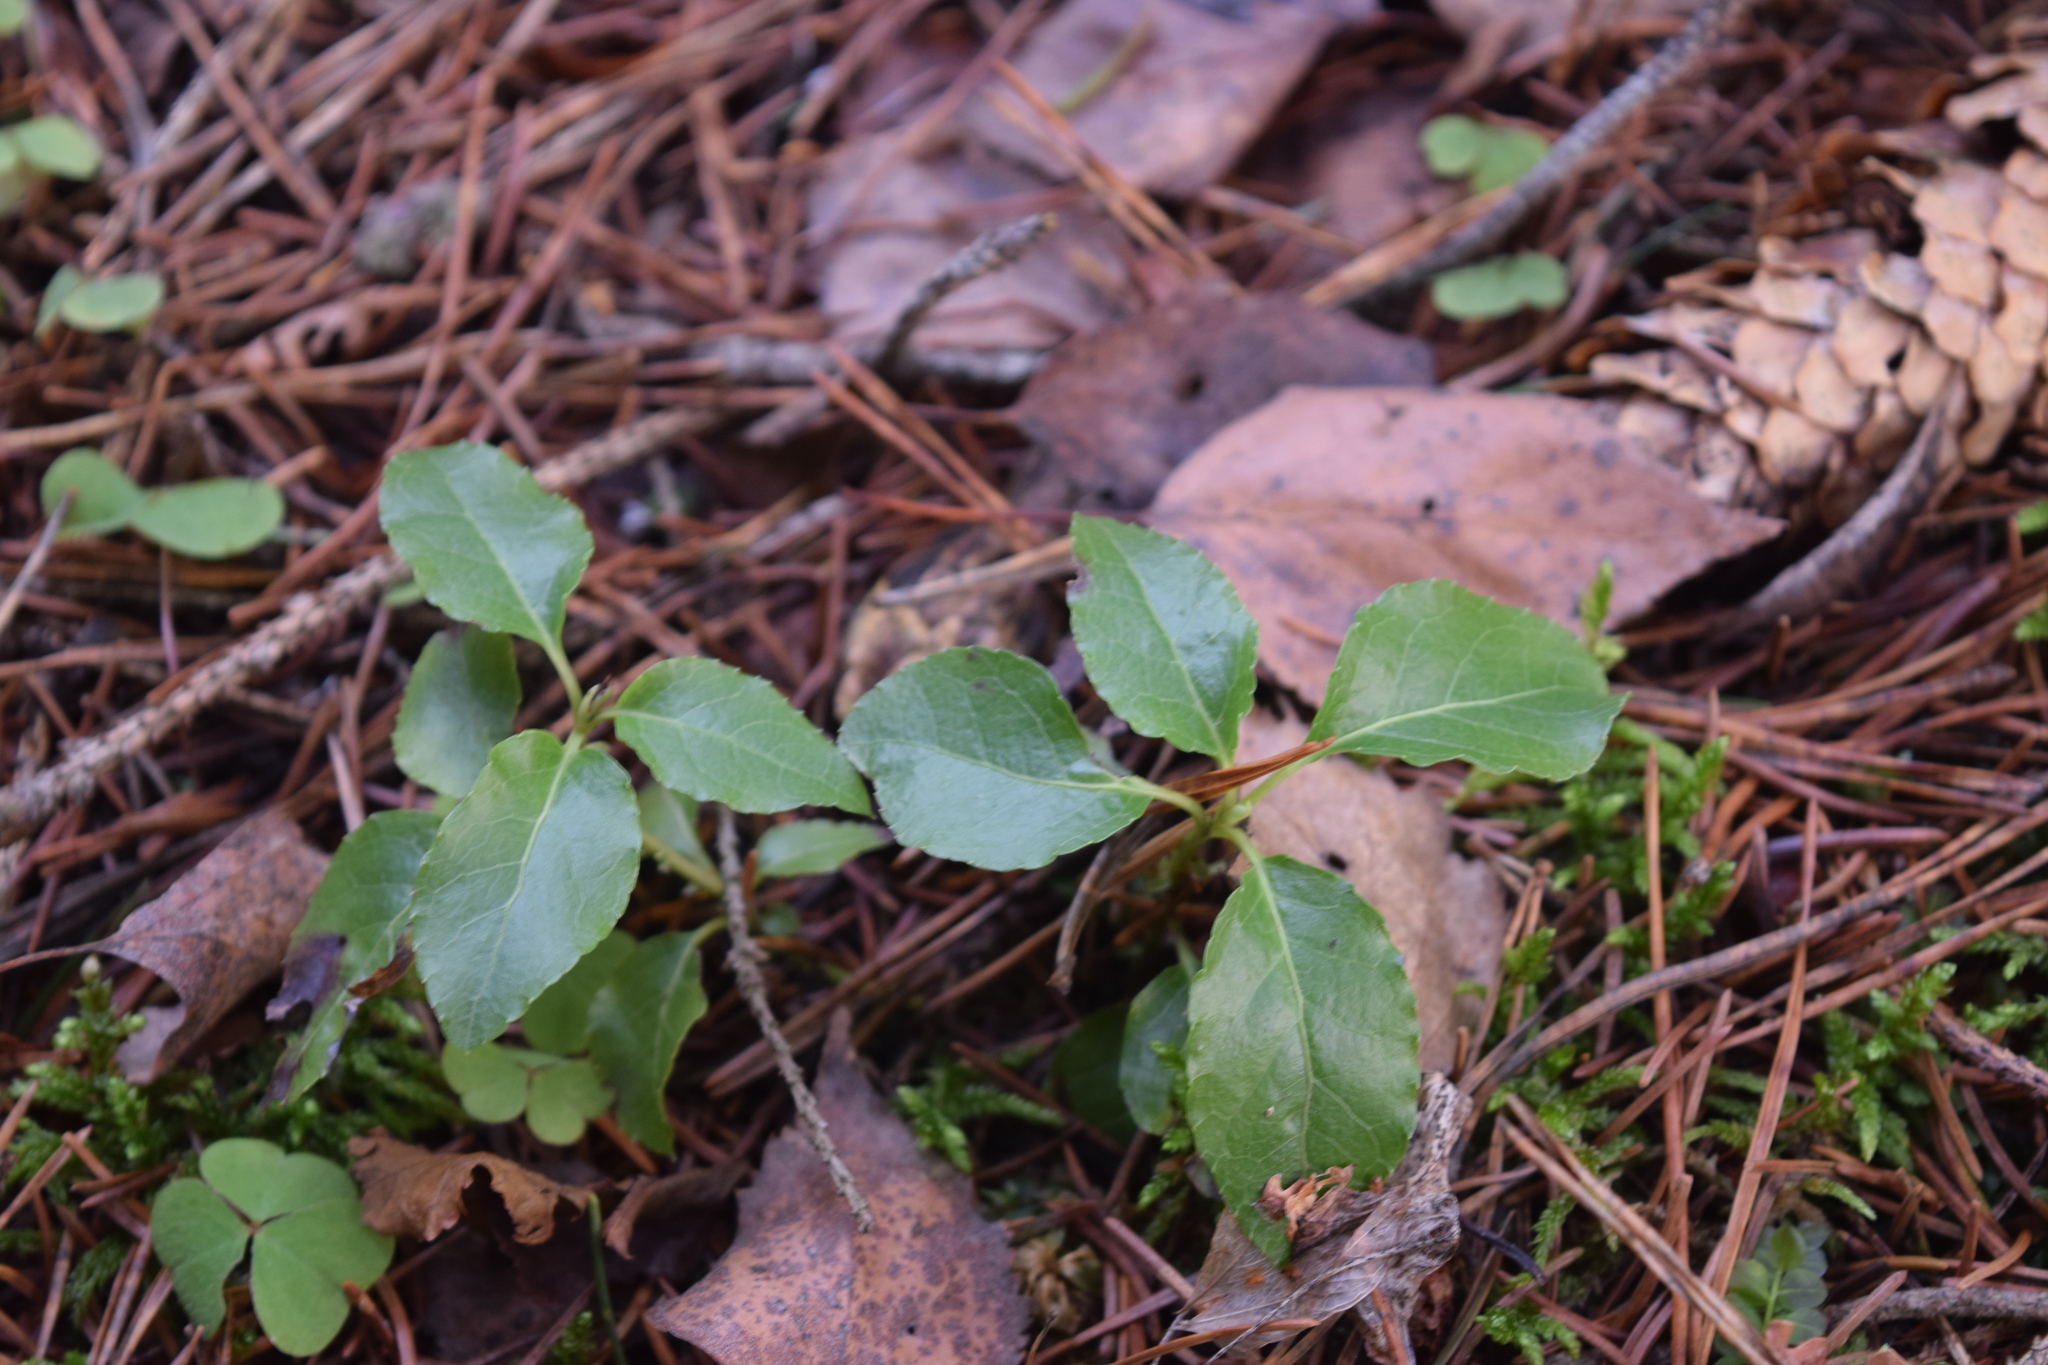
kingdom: Plantae
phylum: Tracheophyta
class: Magnoliopsida
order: Ericales
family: Ericaceae
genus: Orthilia
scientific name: Orthilia secunda
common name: One-sided orthilia
